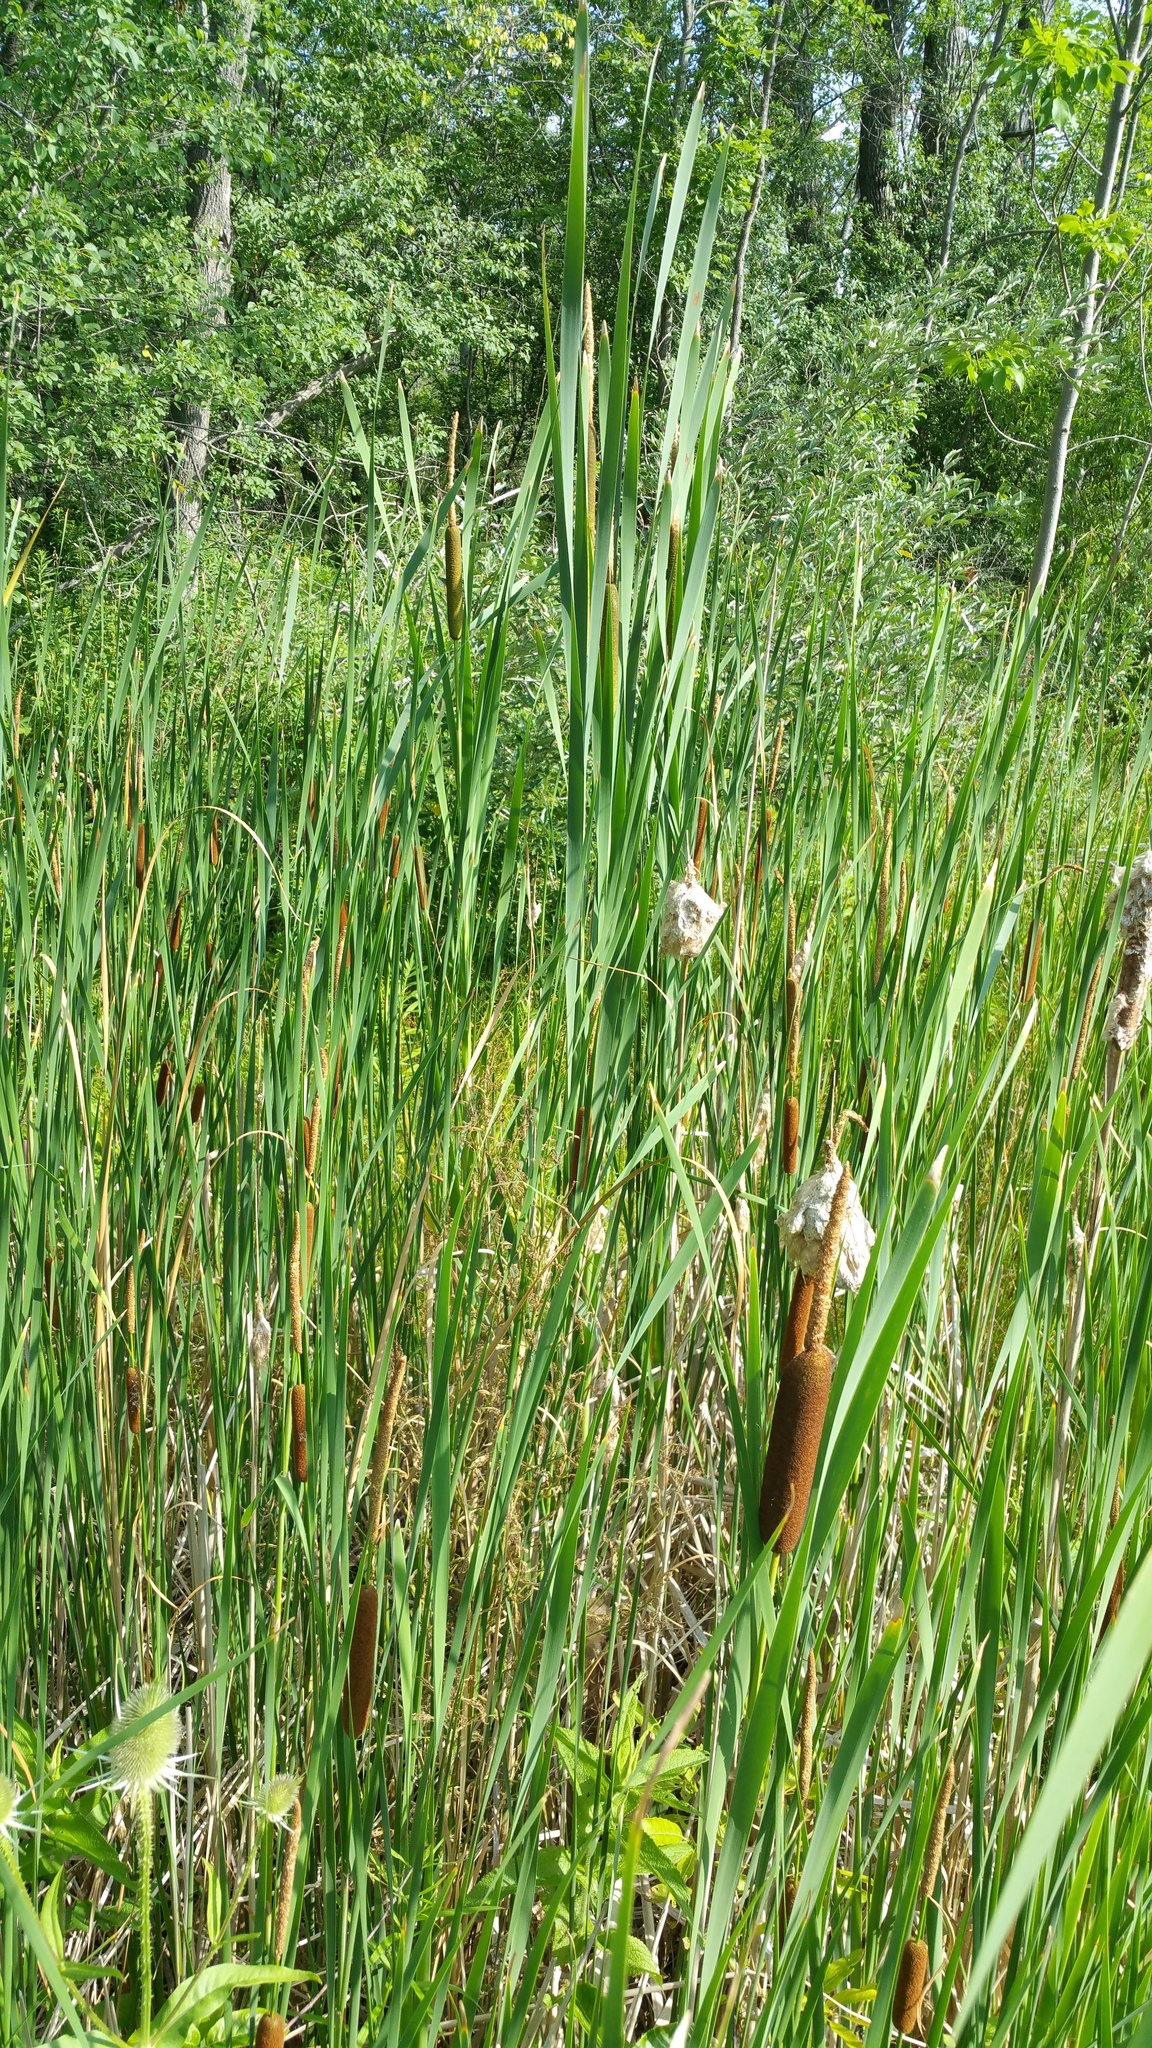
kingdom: Plantae
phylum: Tracheophyta
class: Liliopsida
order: Poales
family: Typhaceae
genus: Typha
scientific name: Typha glauca
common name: Blue cattail
